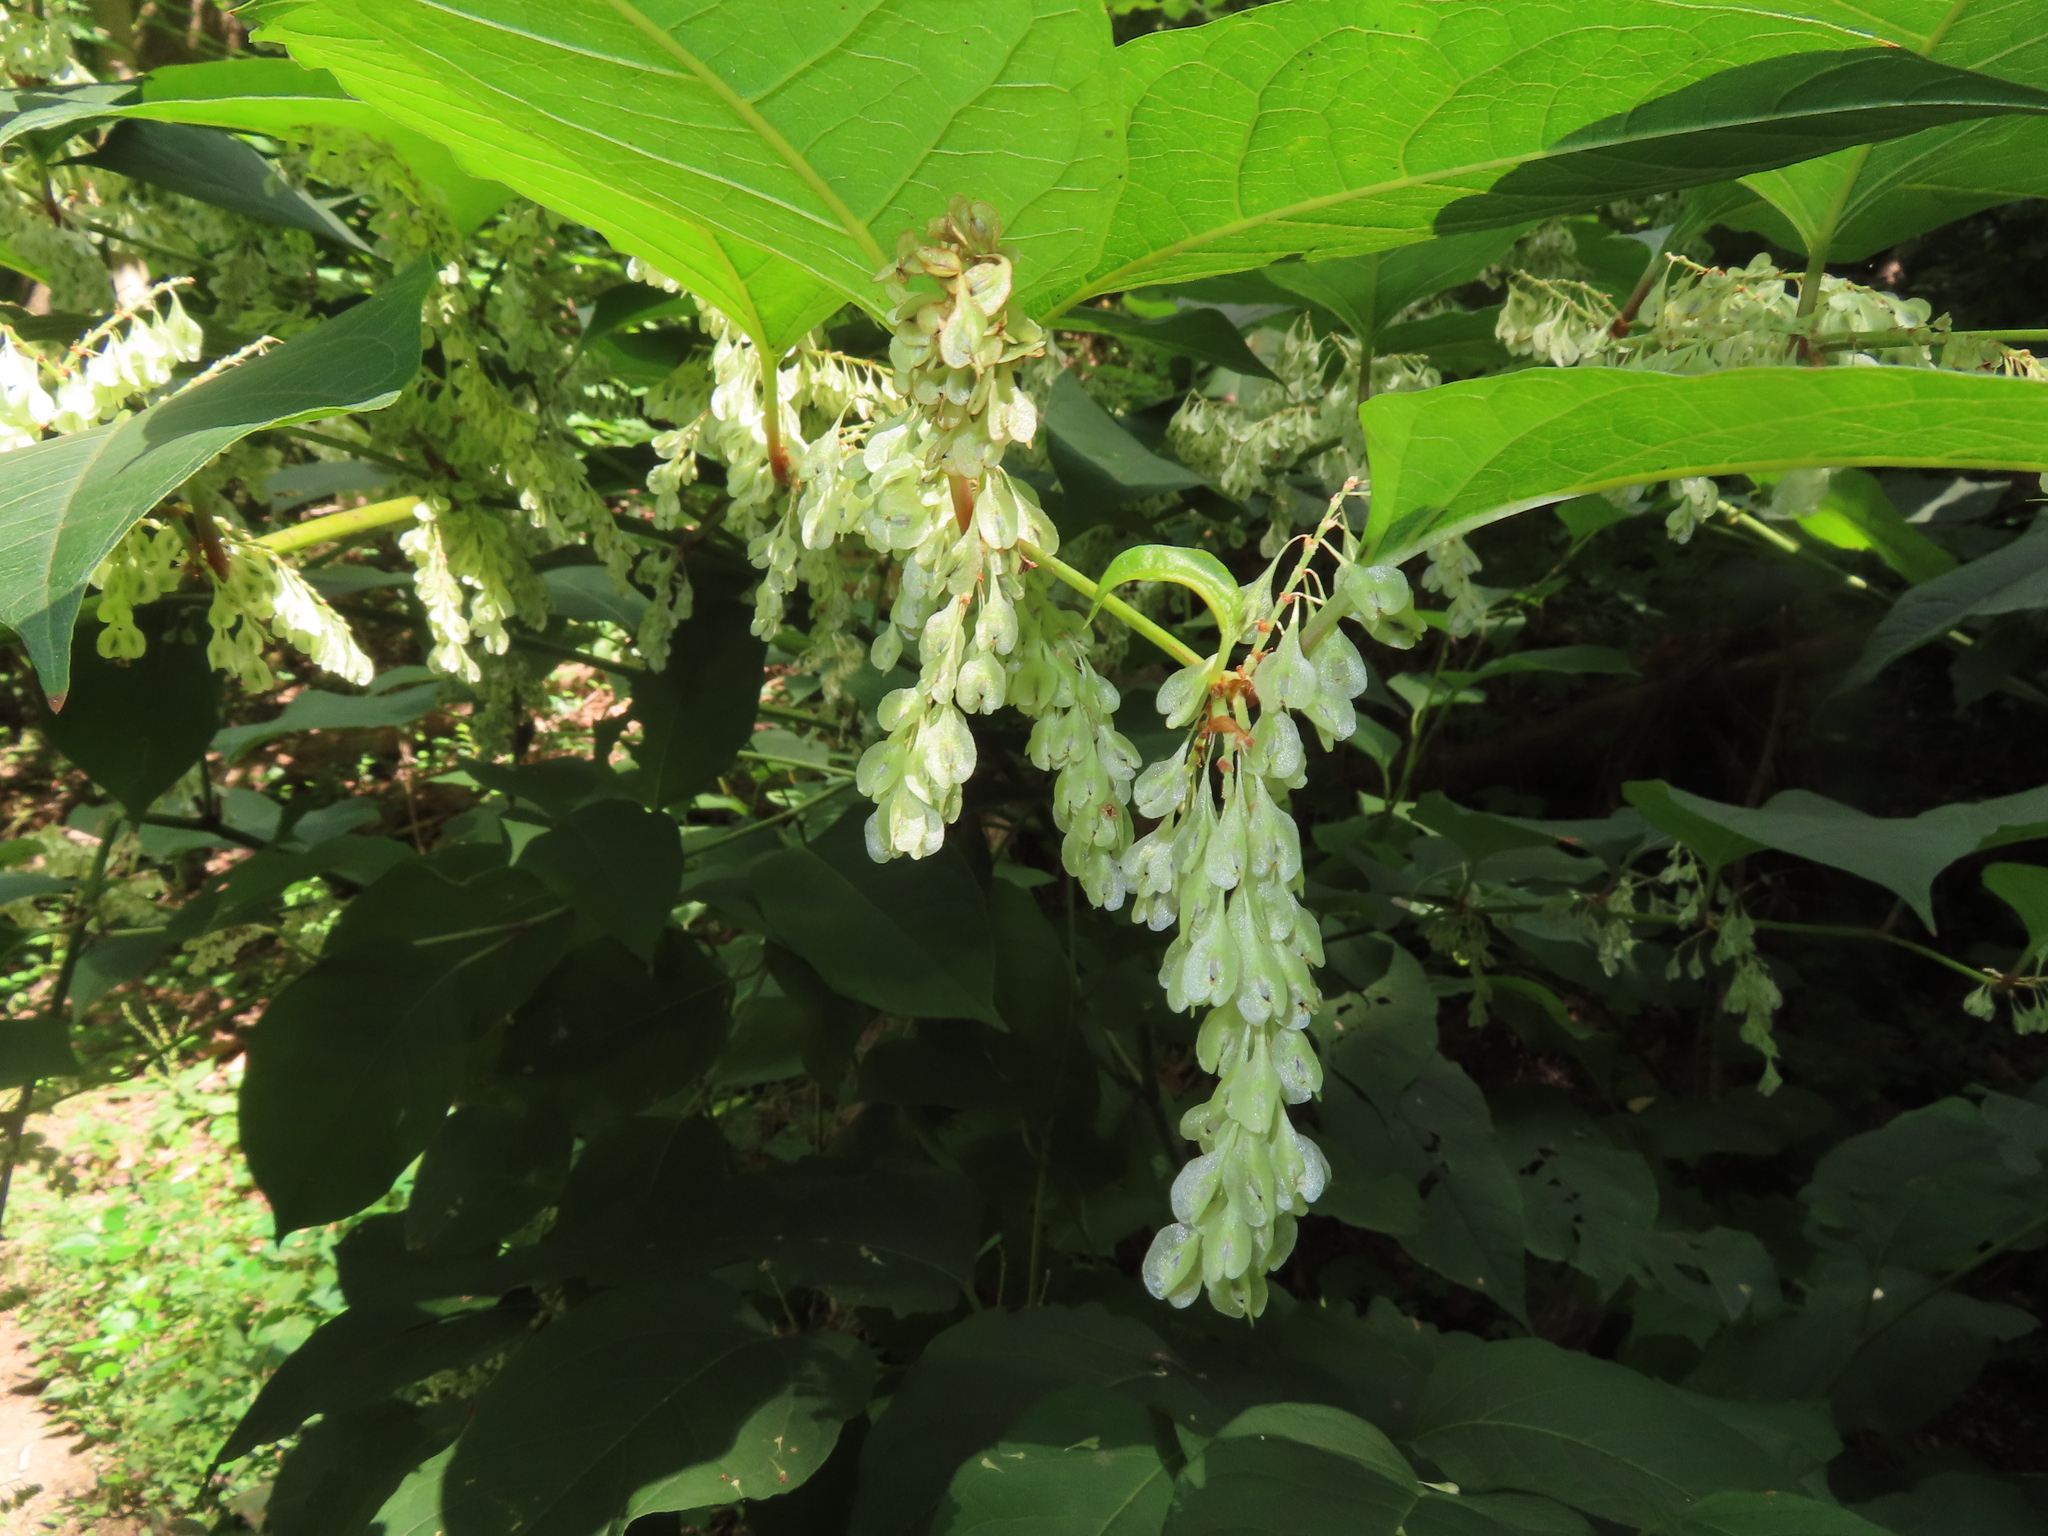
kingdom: Plantae
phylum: Tracheophyta
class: Magnoliopsida
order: Caryophyllales
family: Polygonaceae
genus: Reynoutria
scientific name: Reynoutria japonica
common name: Japanese knotweed
